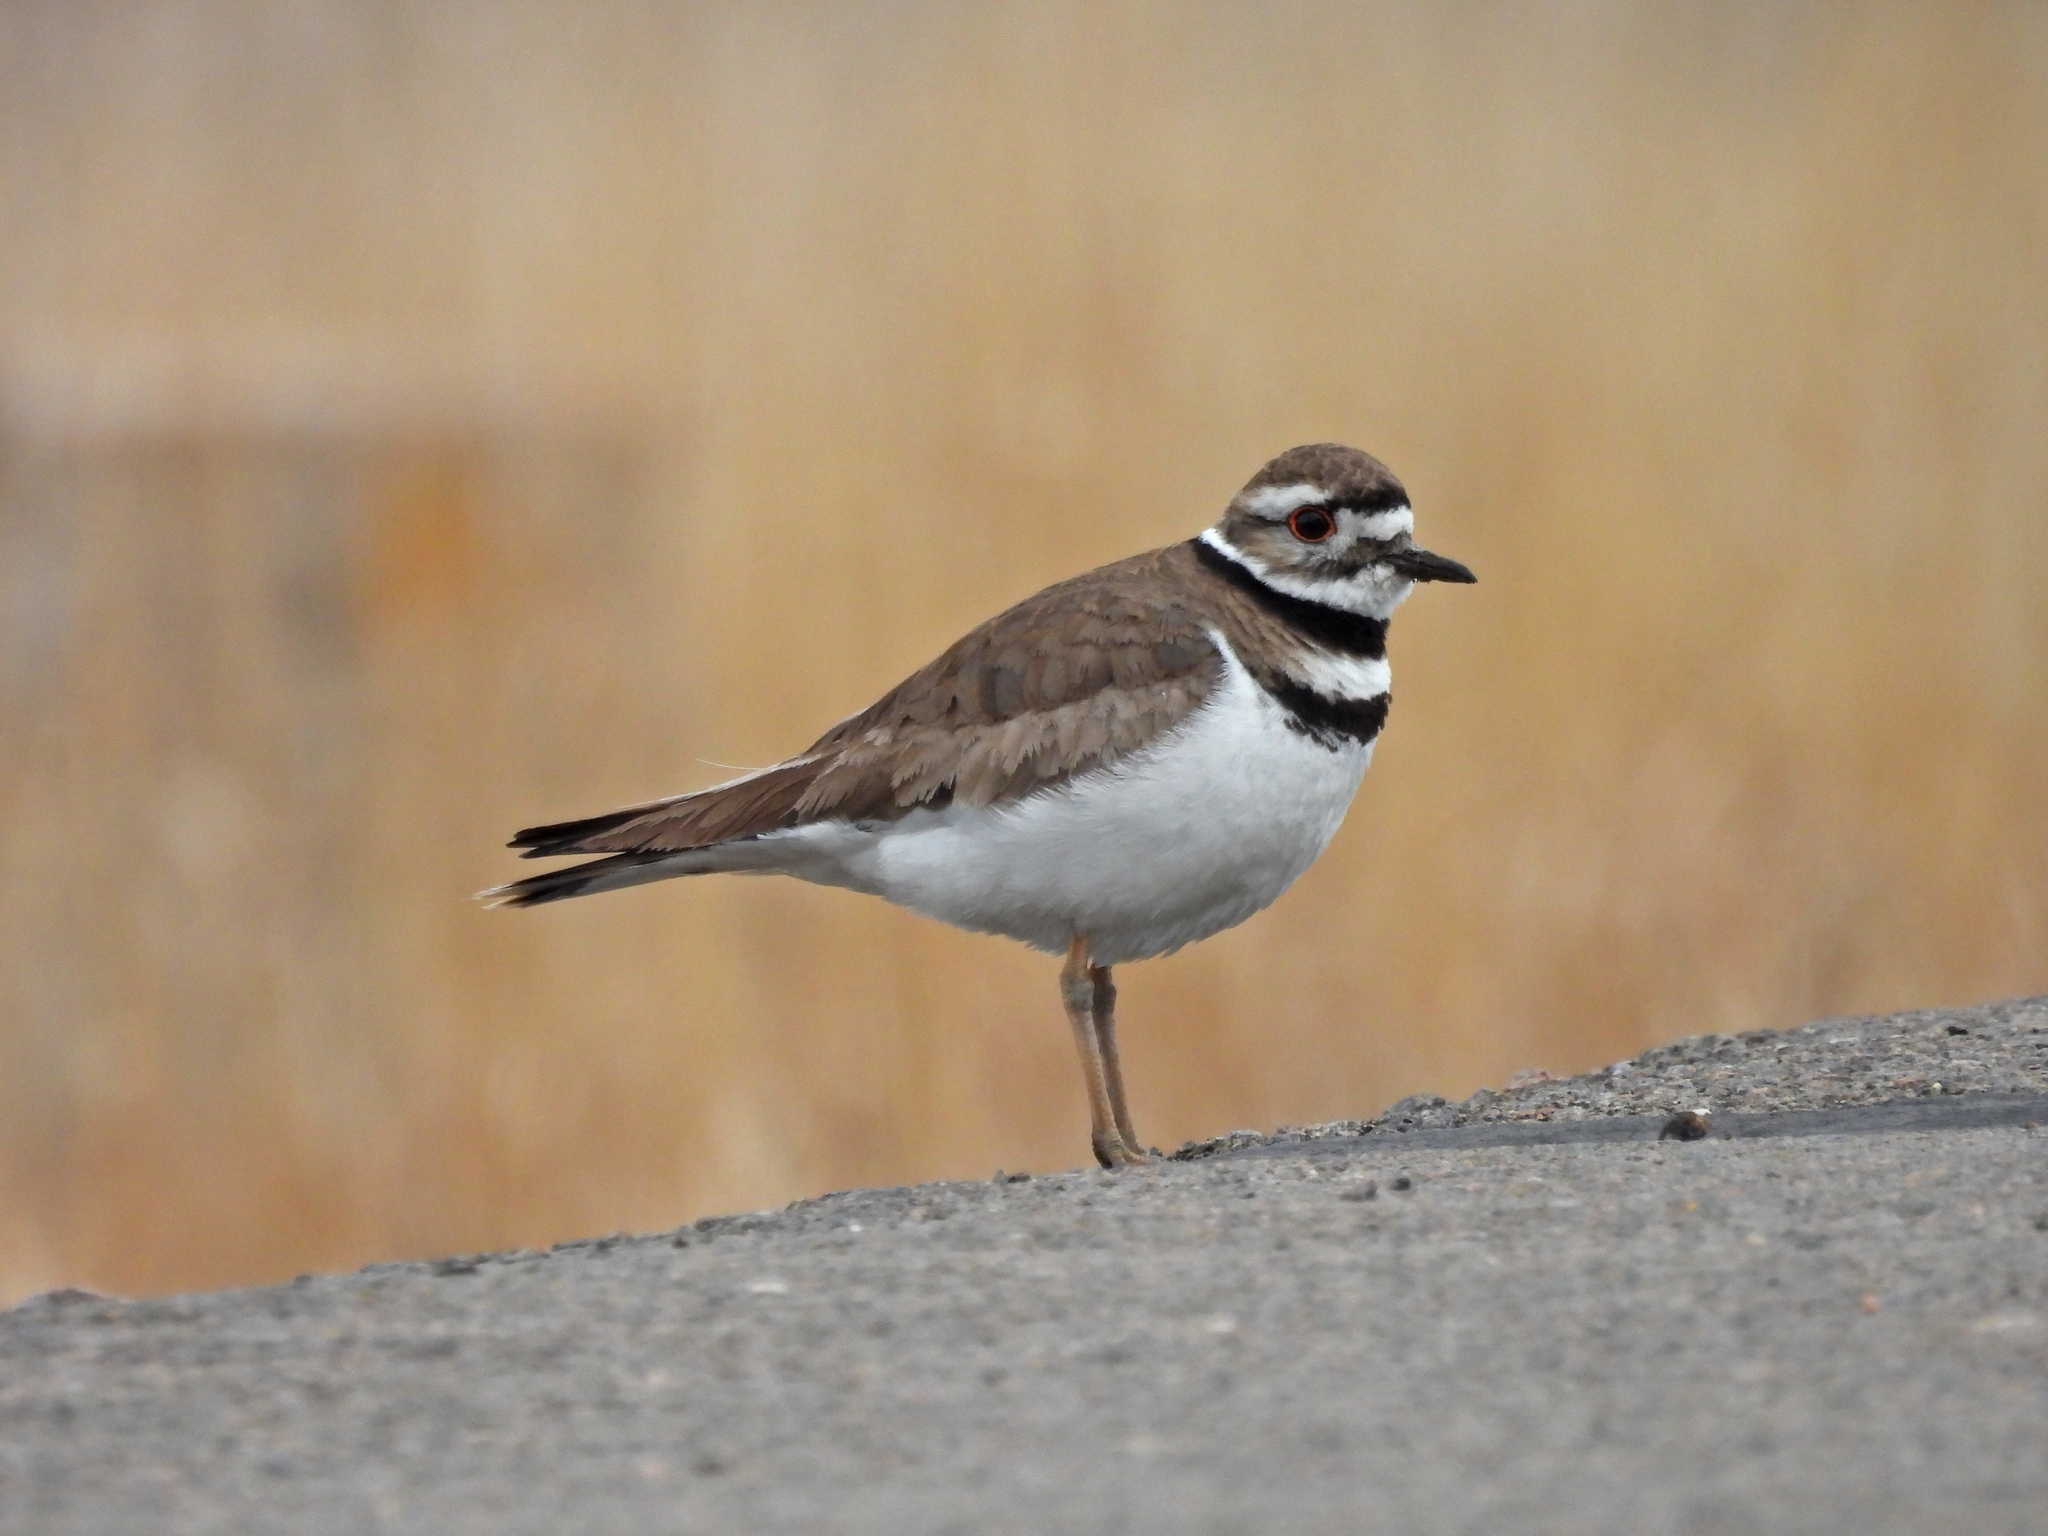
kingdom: Animalia
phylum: Chordata
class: Aves
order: Charadriiformes
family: Charadriidae
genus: Charadrius
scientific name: Charadrius vociferus
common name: Killdeer
